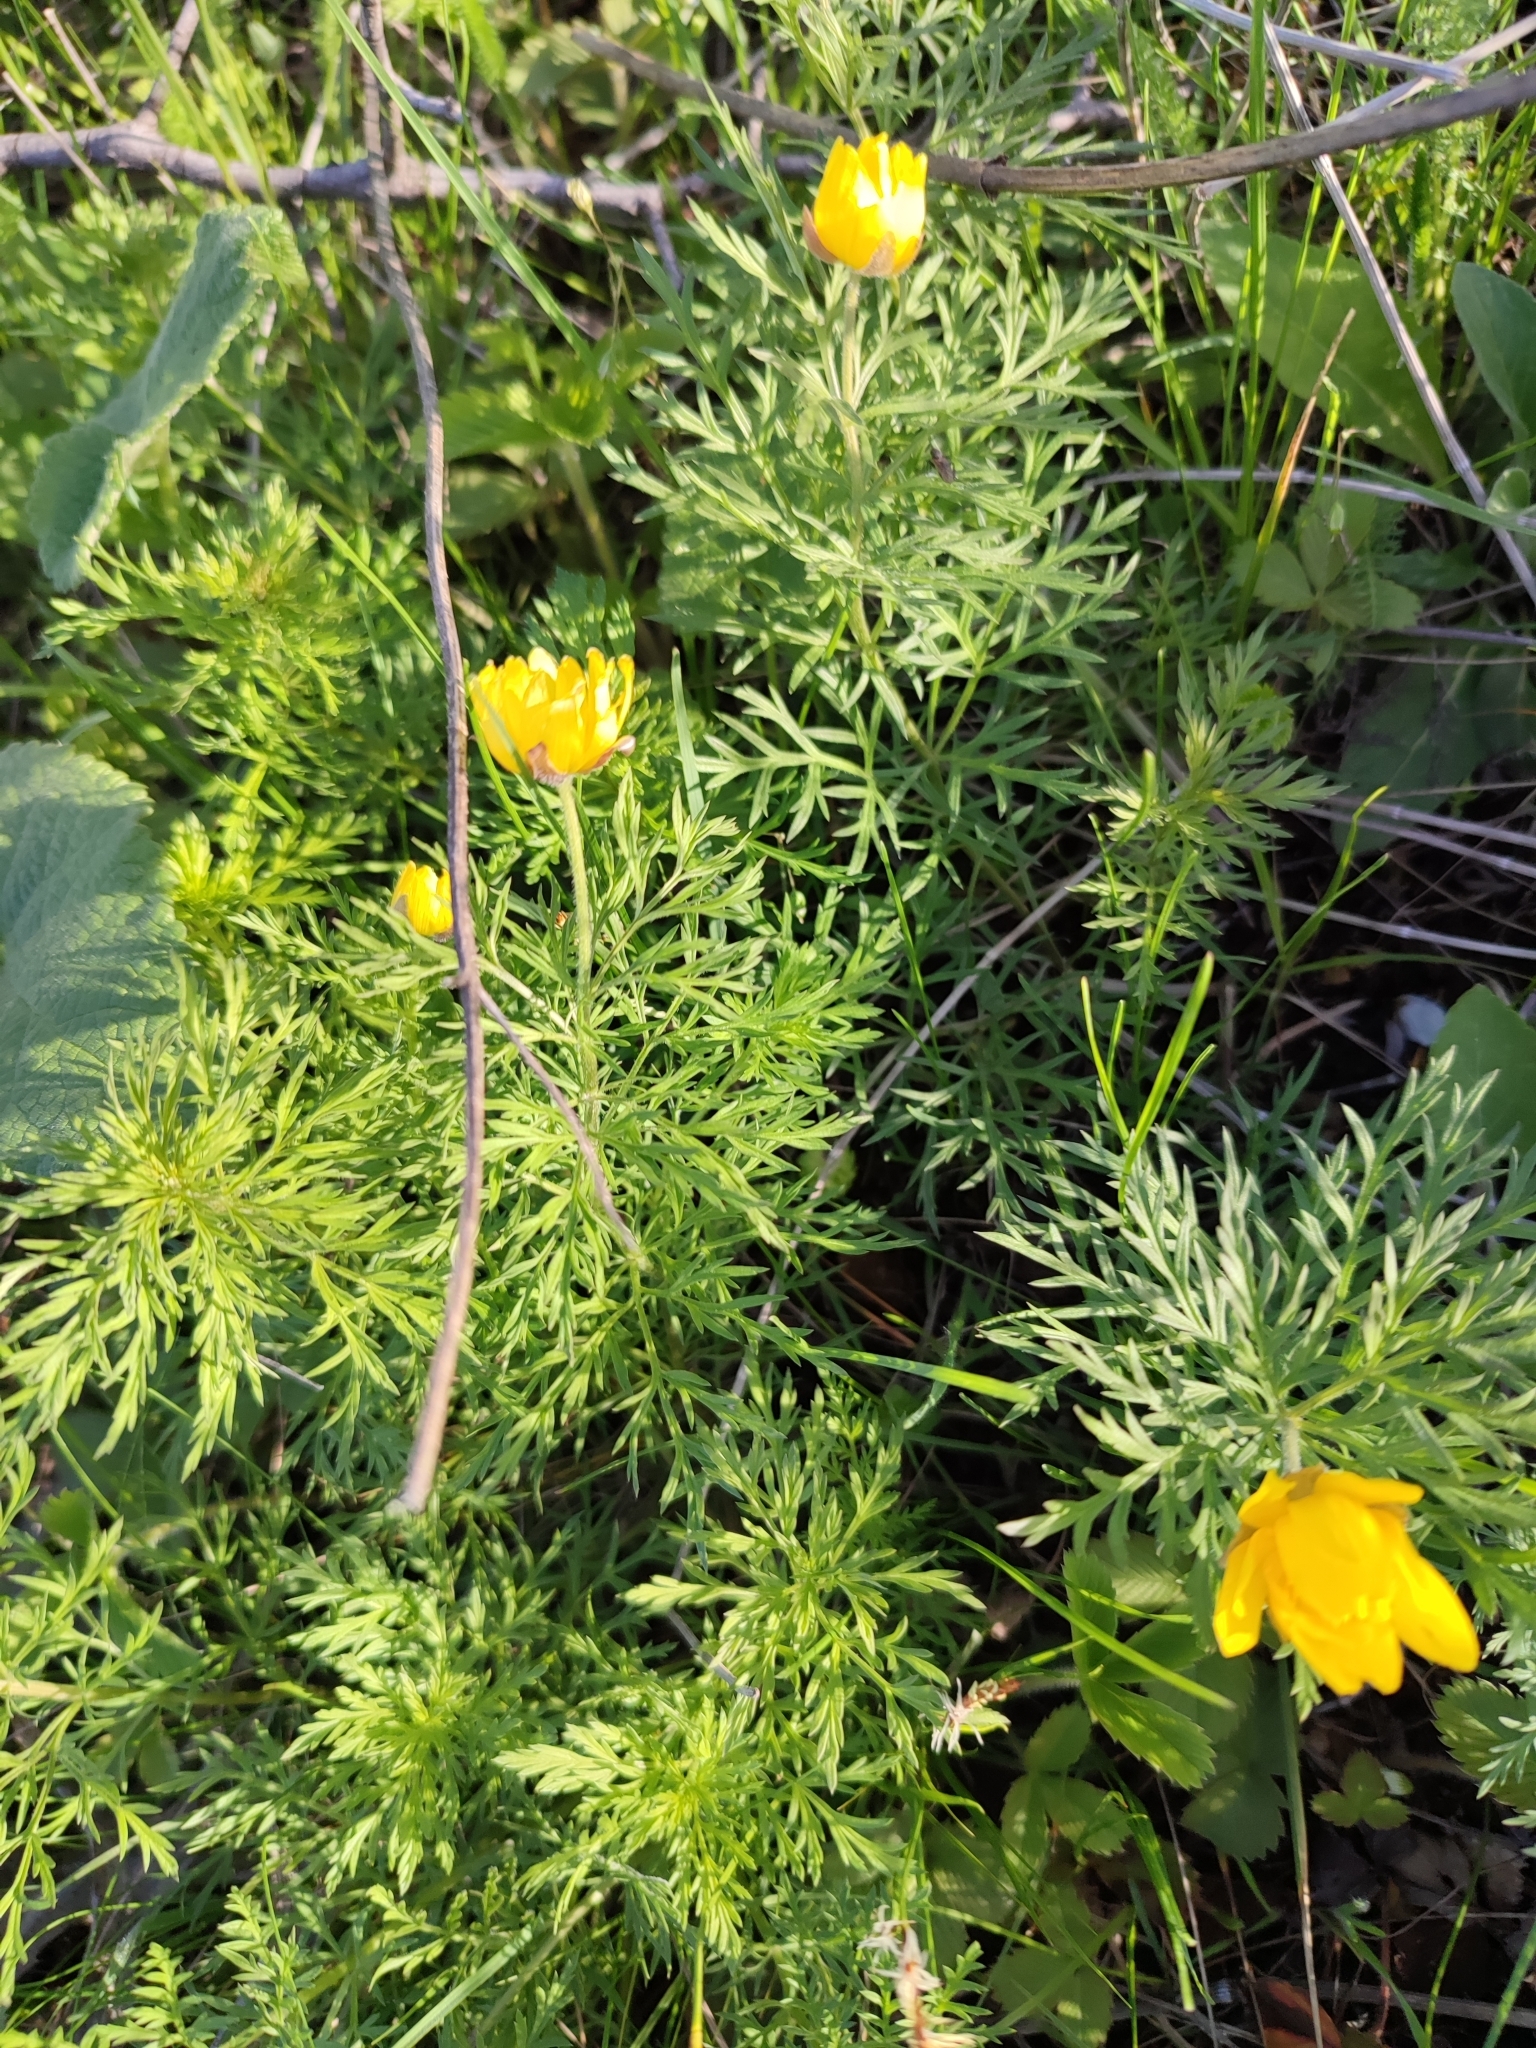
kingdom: Plantae
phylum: Tracheophyta
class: Magnoliopsida
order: Ranunculales
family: Ranunculaceae
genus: Adonis
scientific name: Adonis volgensis
